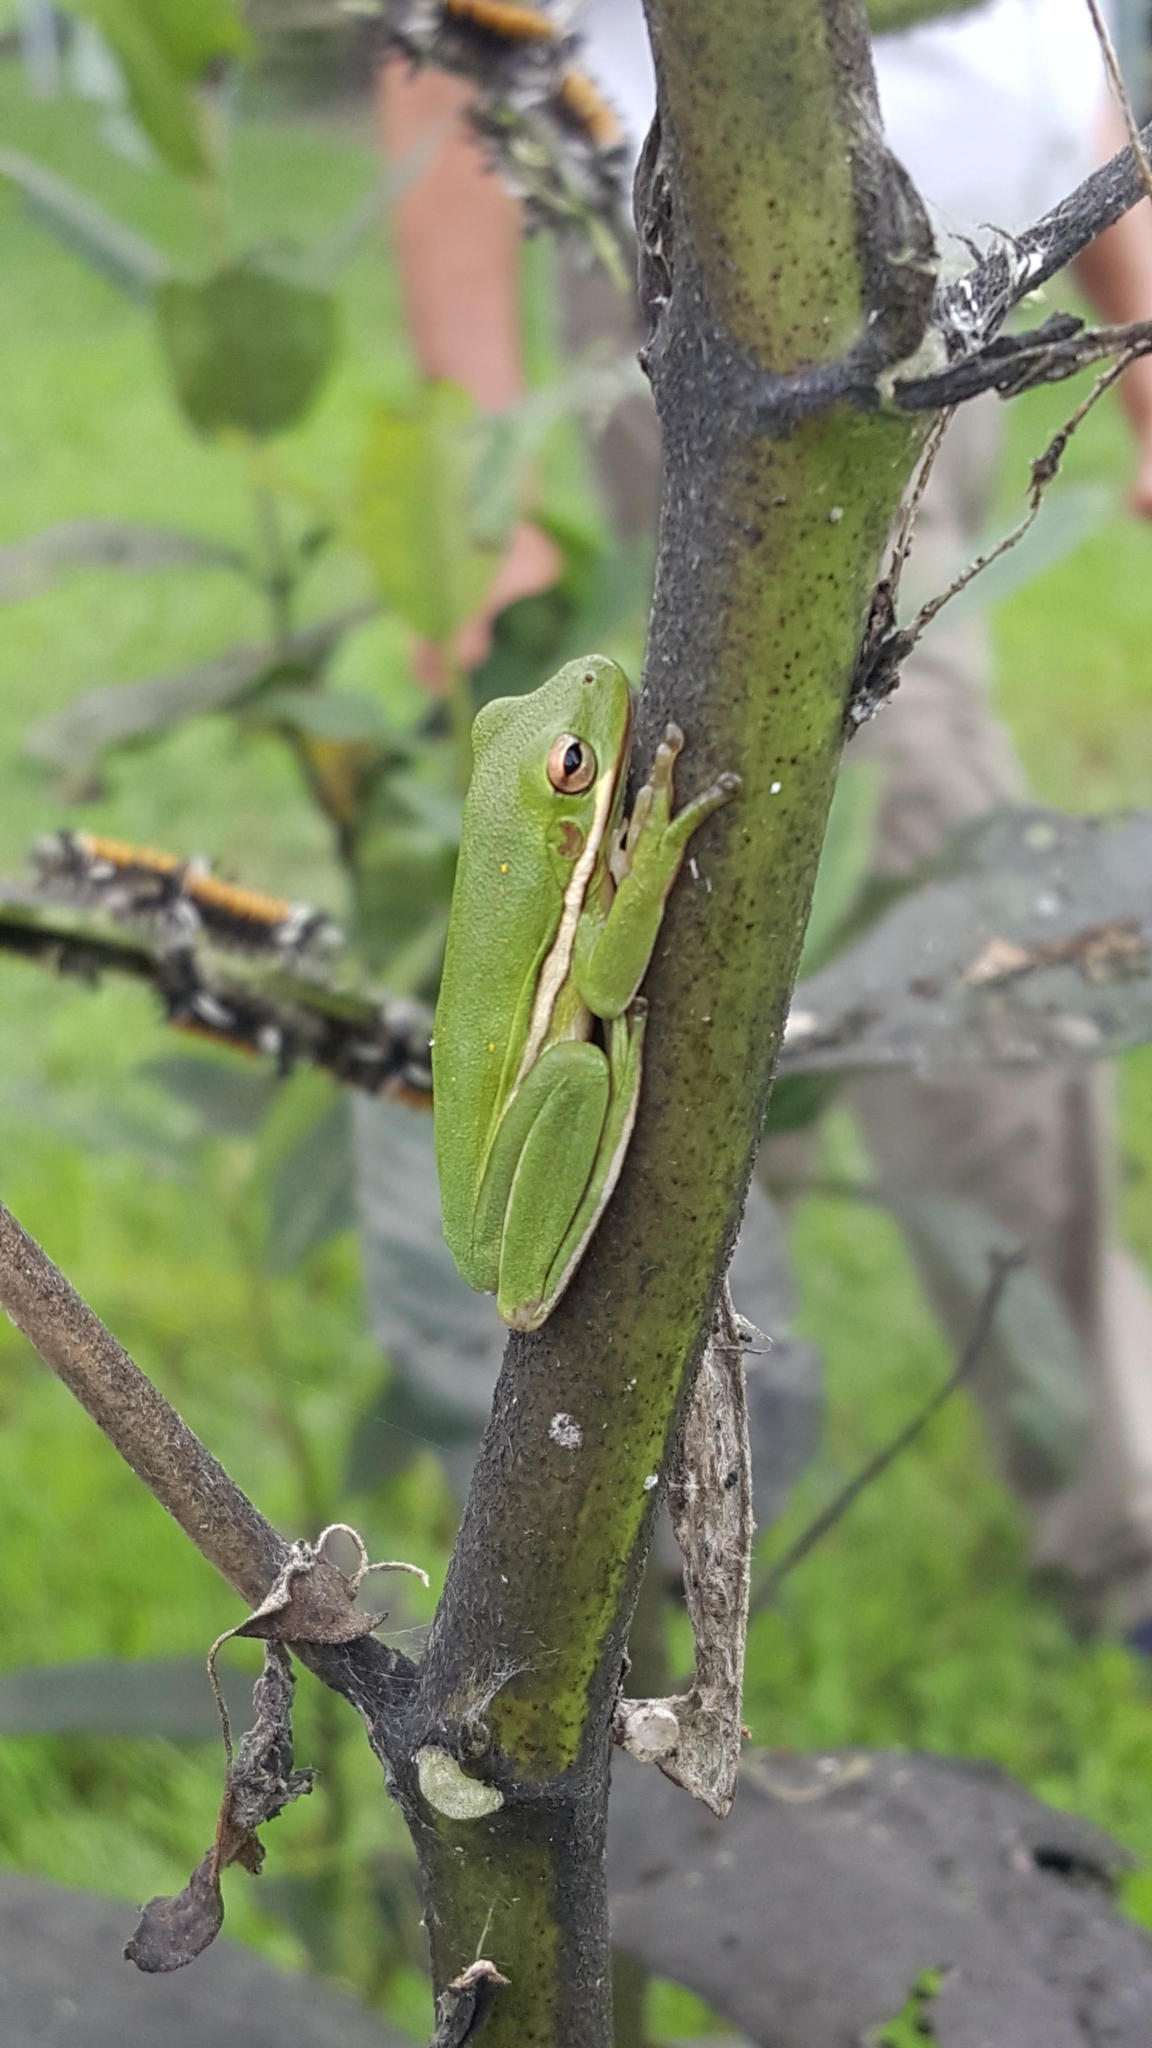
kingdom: Animalia
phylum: Chordata
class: Amphibia
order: Anura
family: Hylidae
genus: Dryophytes
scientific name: Dryophytes cinereus
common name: Green treefrog
